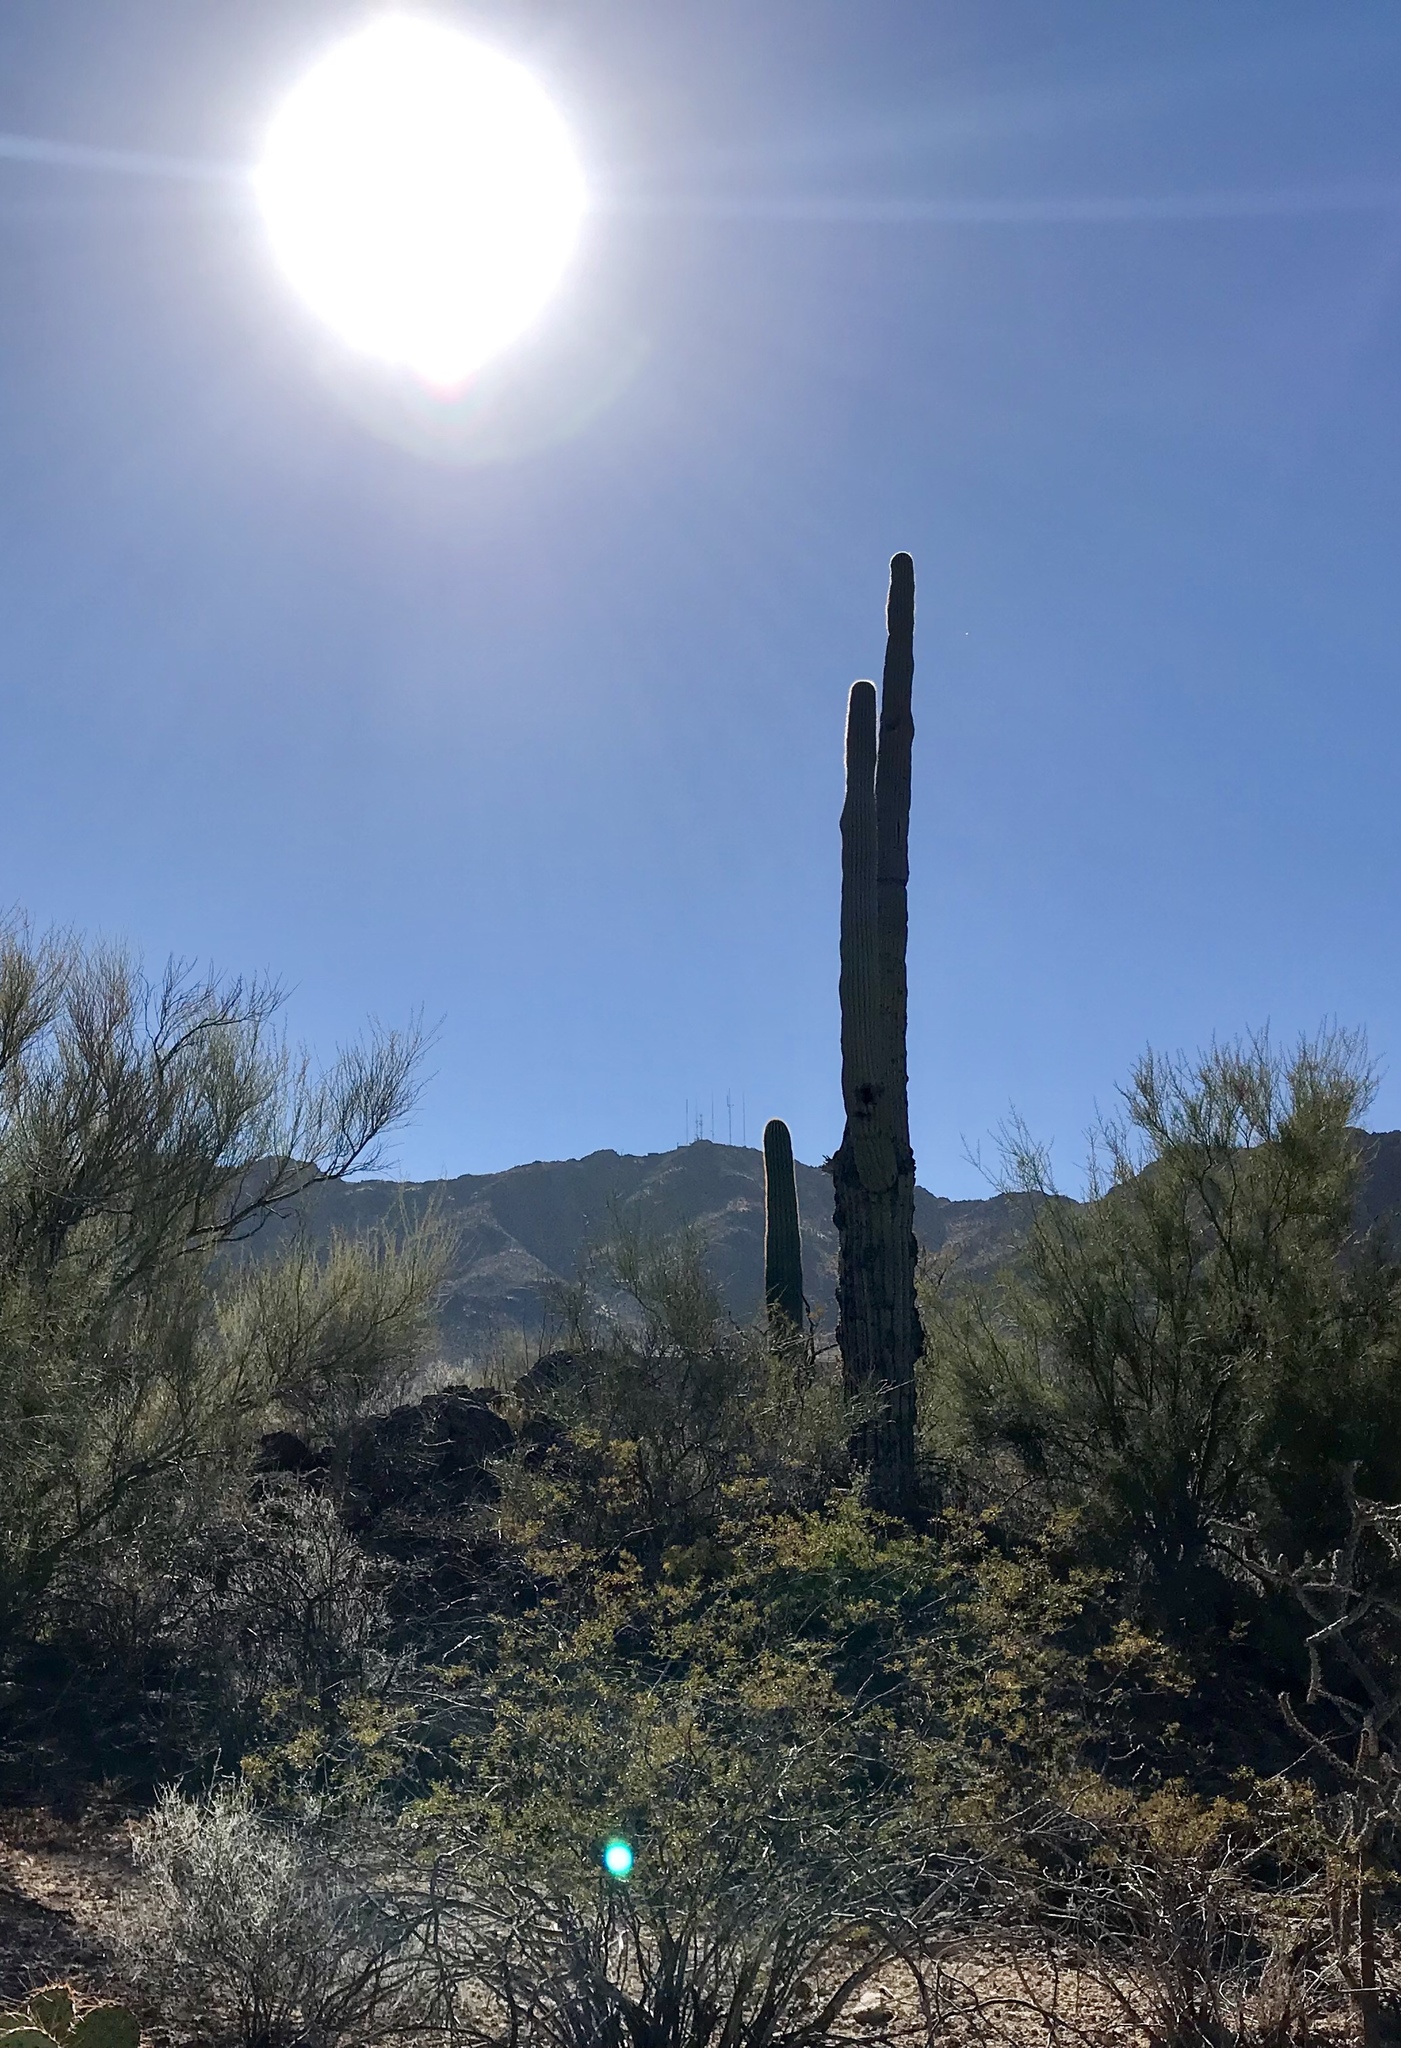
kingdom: Plantae
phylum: Tracheophyta
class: Magnoliopsida
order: Caryophyllales
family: Cactaceae
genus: Carnegiea
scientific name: Carnegiea gigantea
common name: Saguaro
